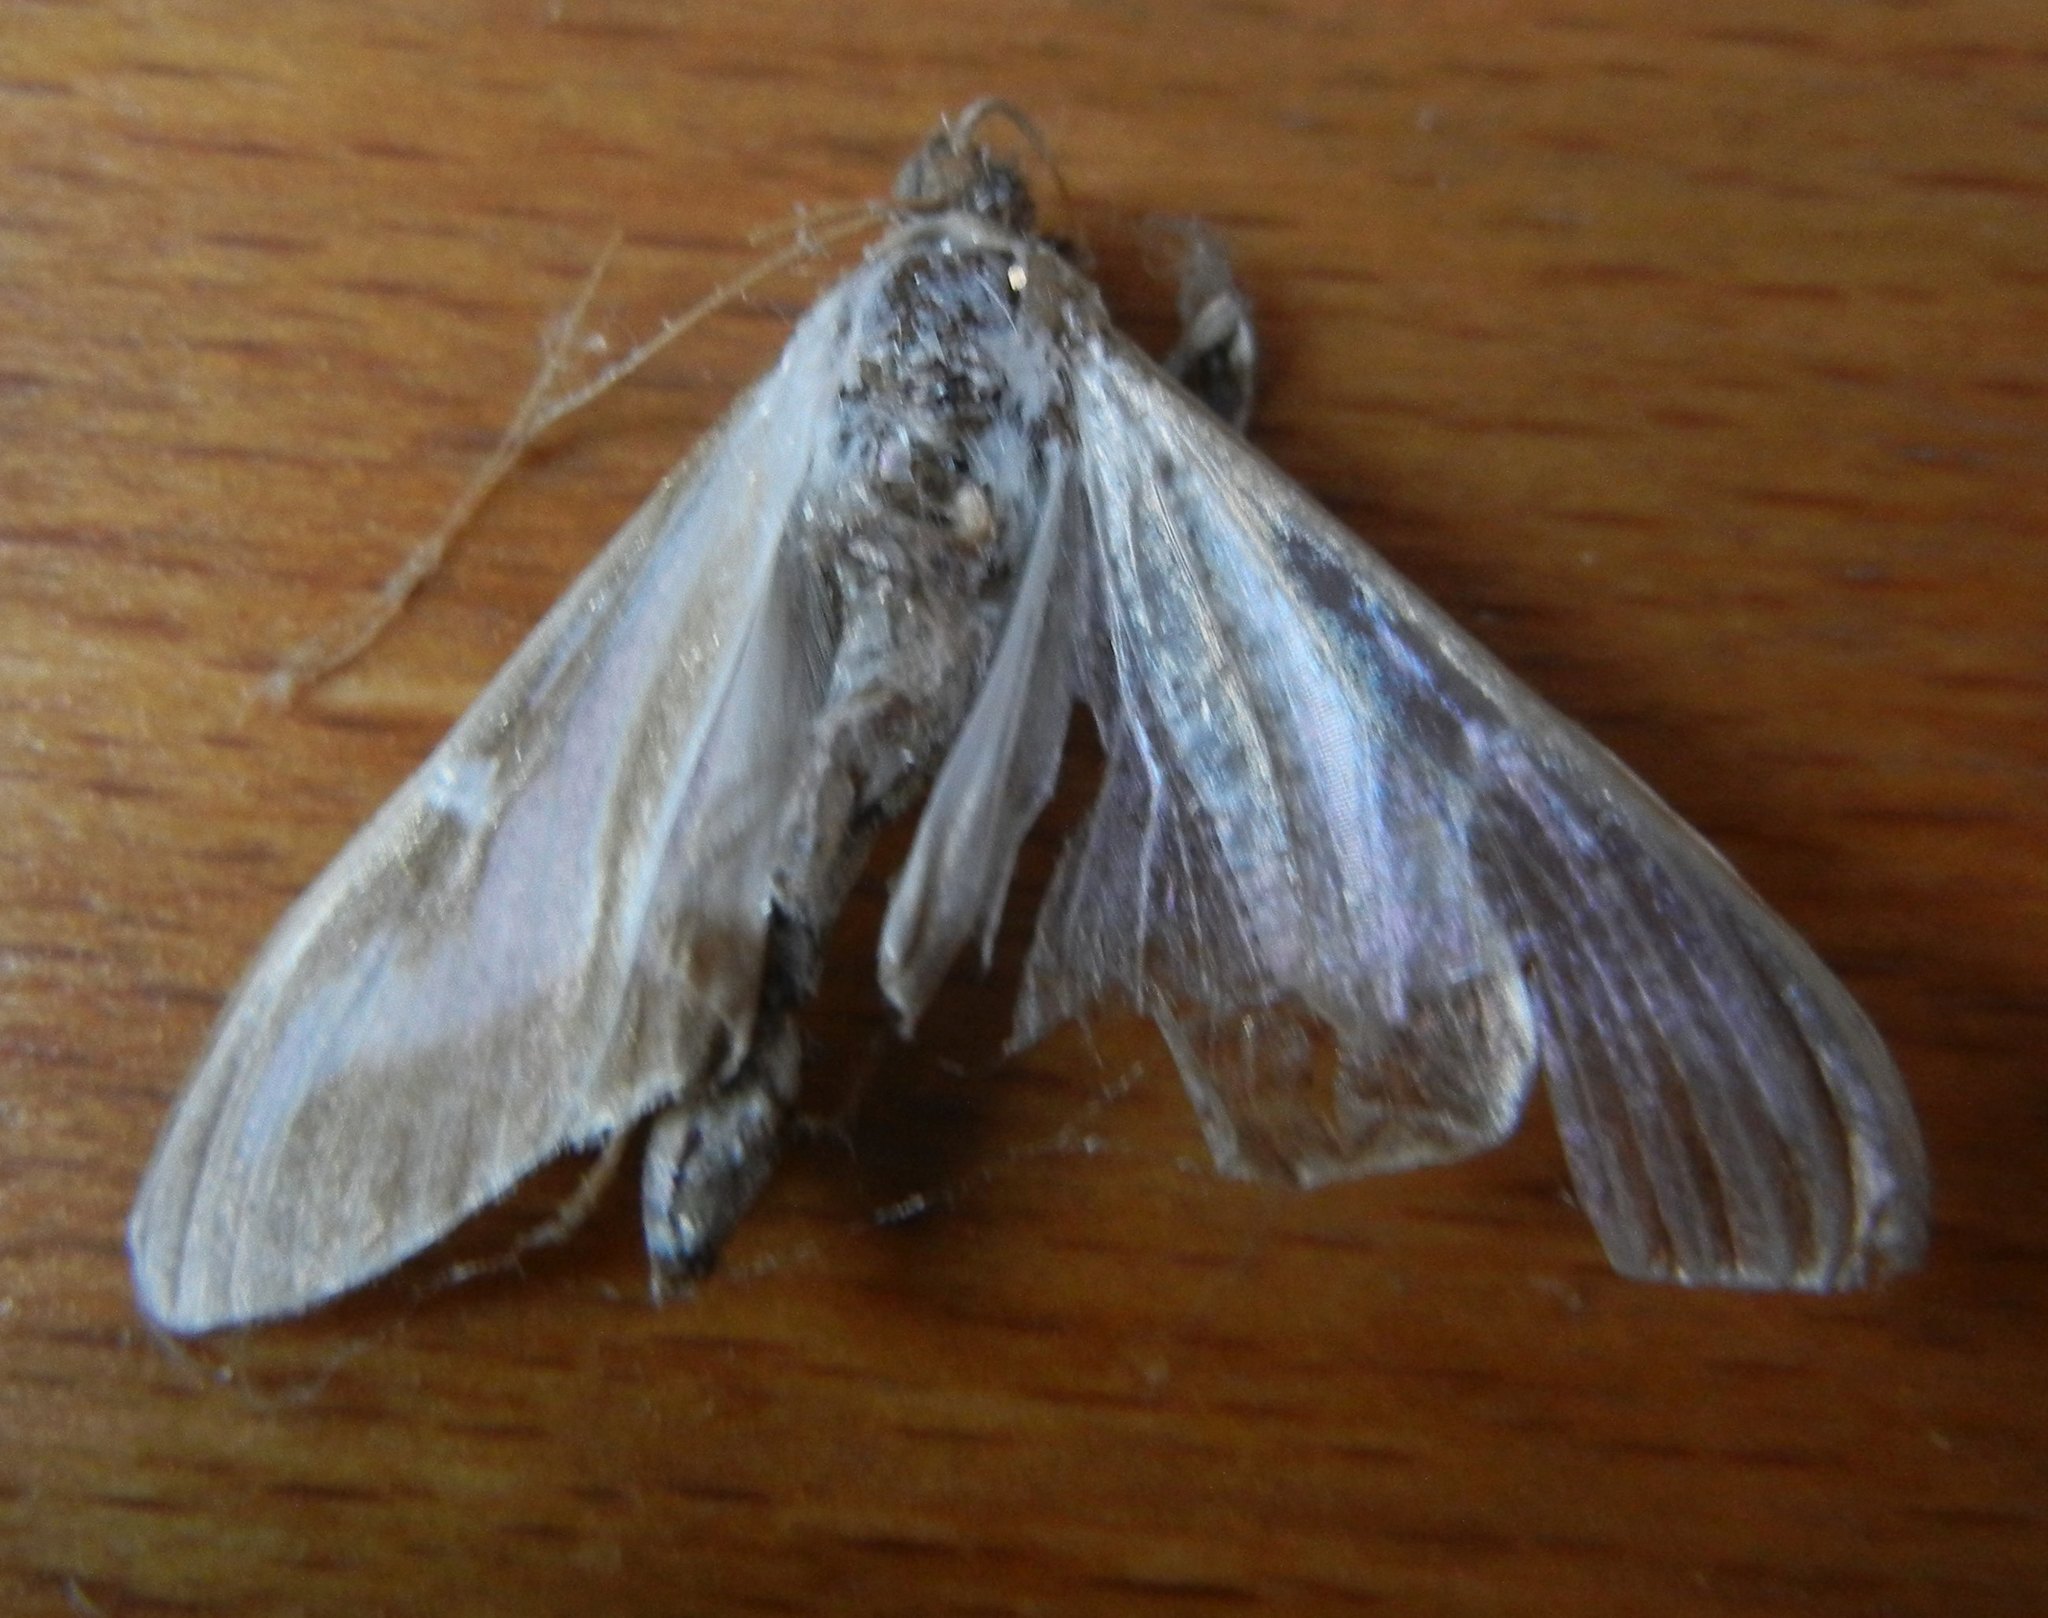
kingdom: Animalia
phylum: Arthropoda
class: Insecta
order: Lepidoptera
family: Crambidae
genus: Cydalima
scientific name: Cydalima perspectalis
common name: Box tree moth
